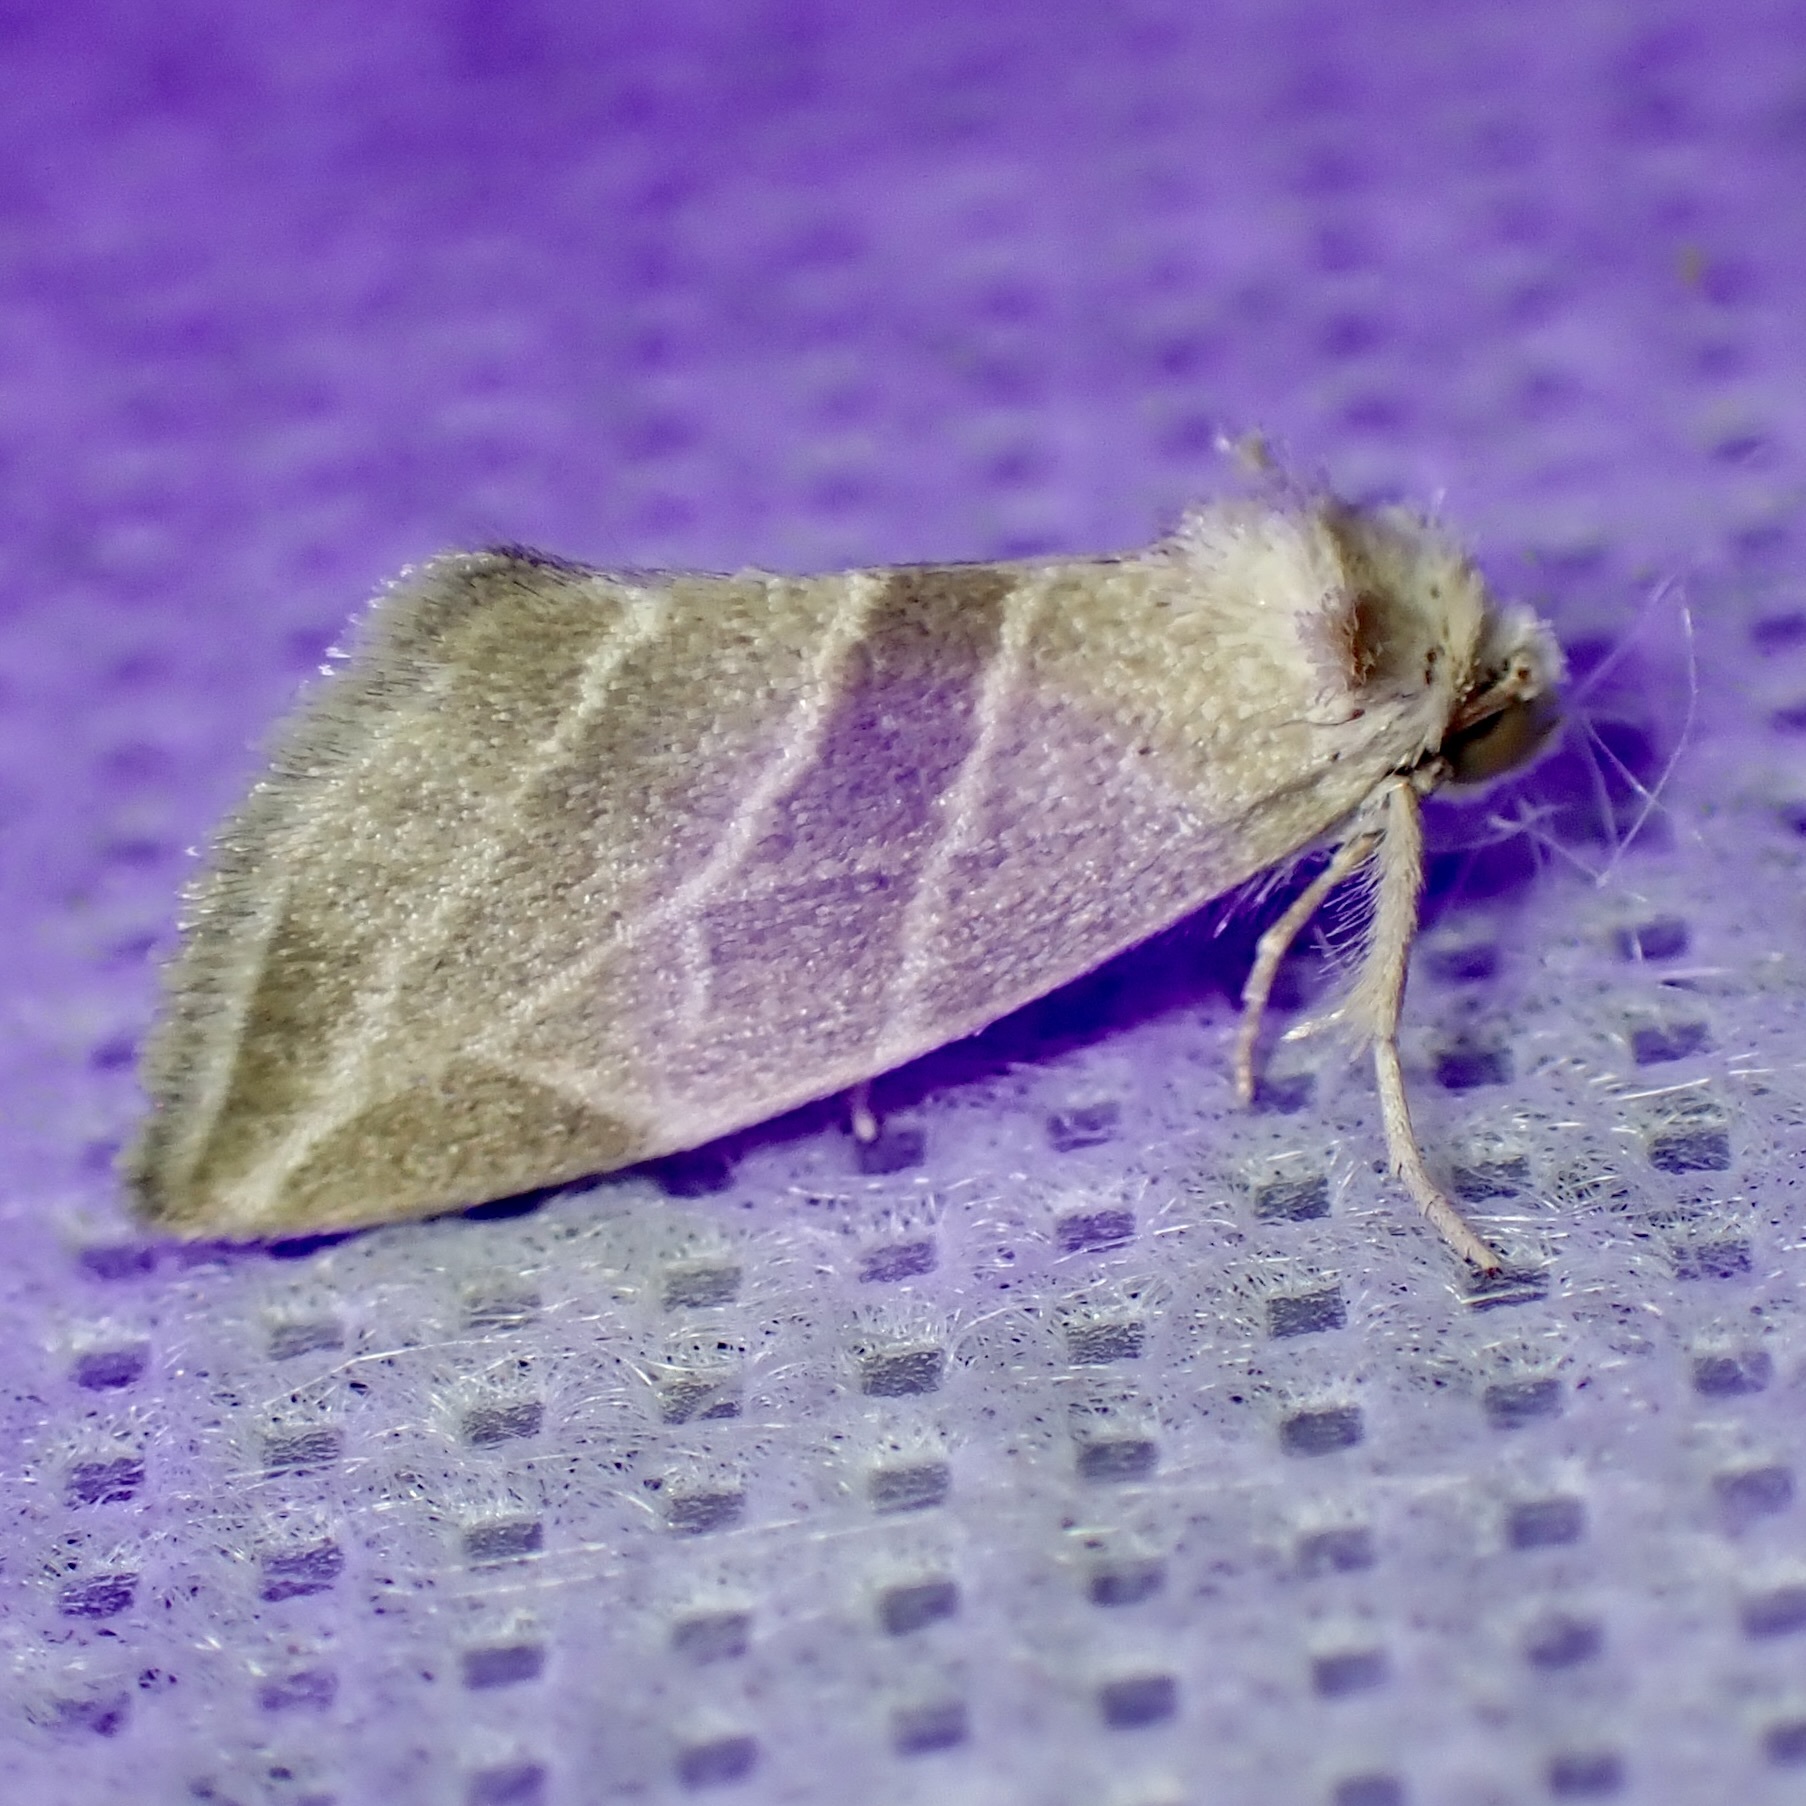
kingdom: Animalia
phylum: Arthropoda
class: Insecta
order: Lepidoptera
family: Noctuidae
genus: Plagiomimicus
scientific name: Plagiomimicus mimica
